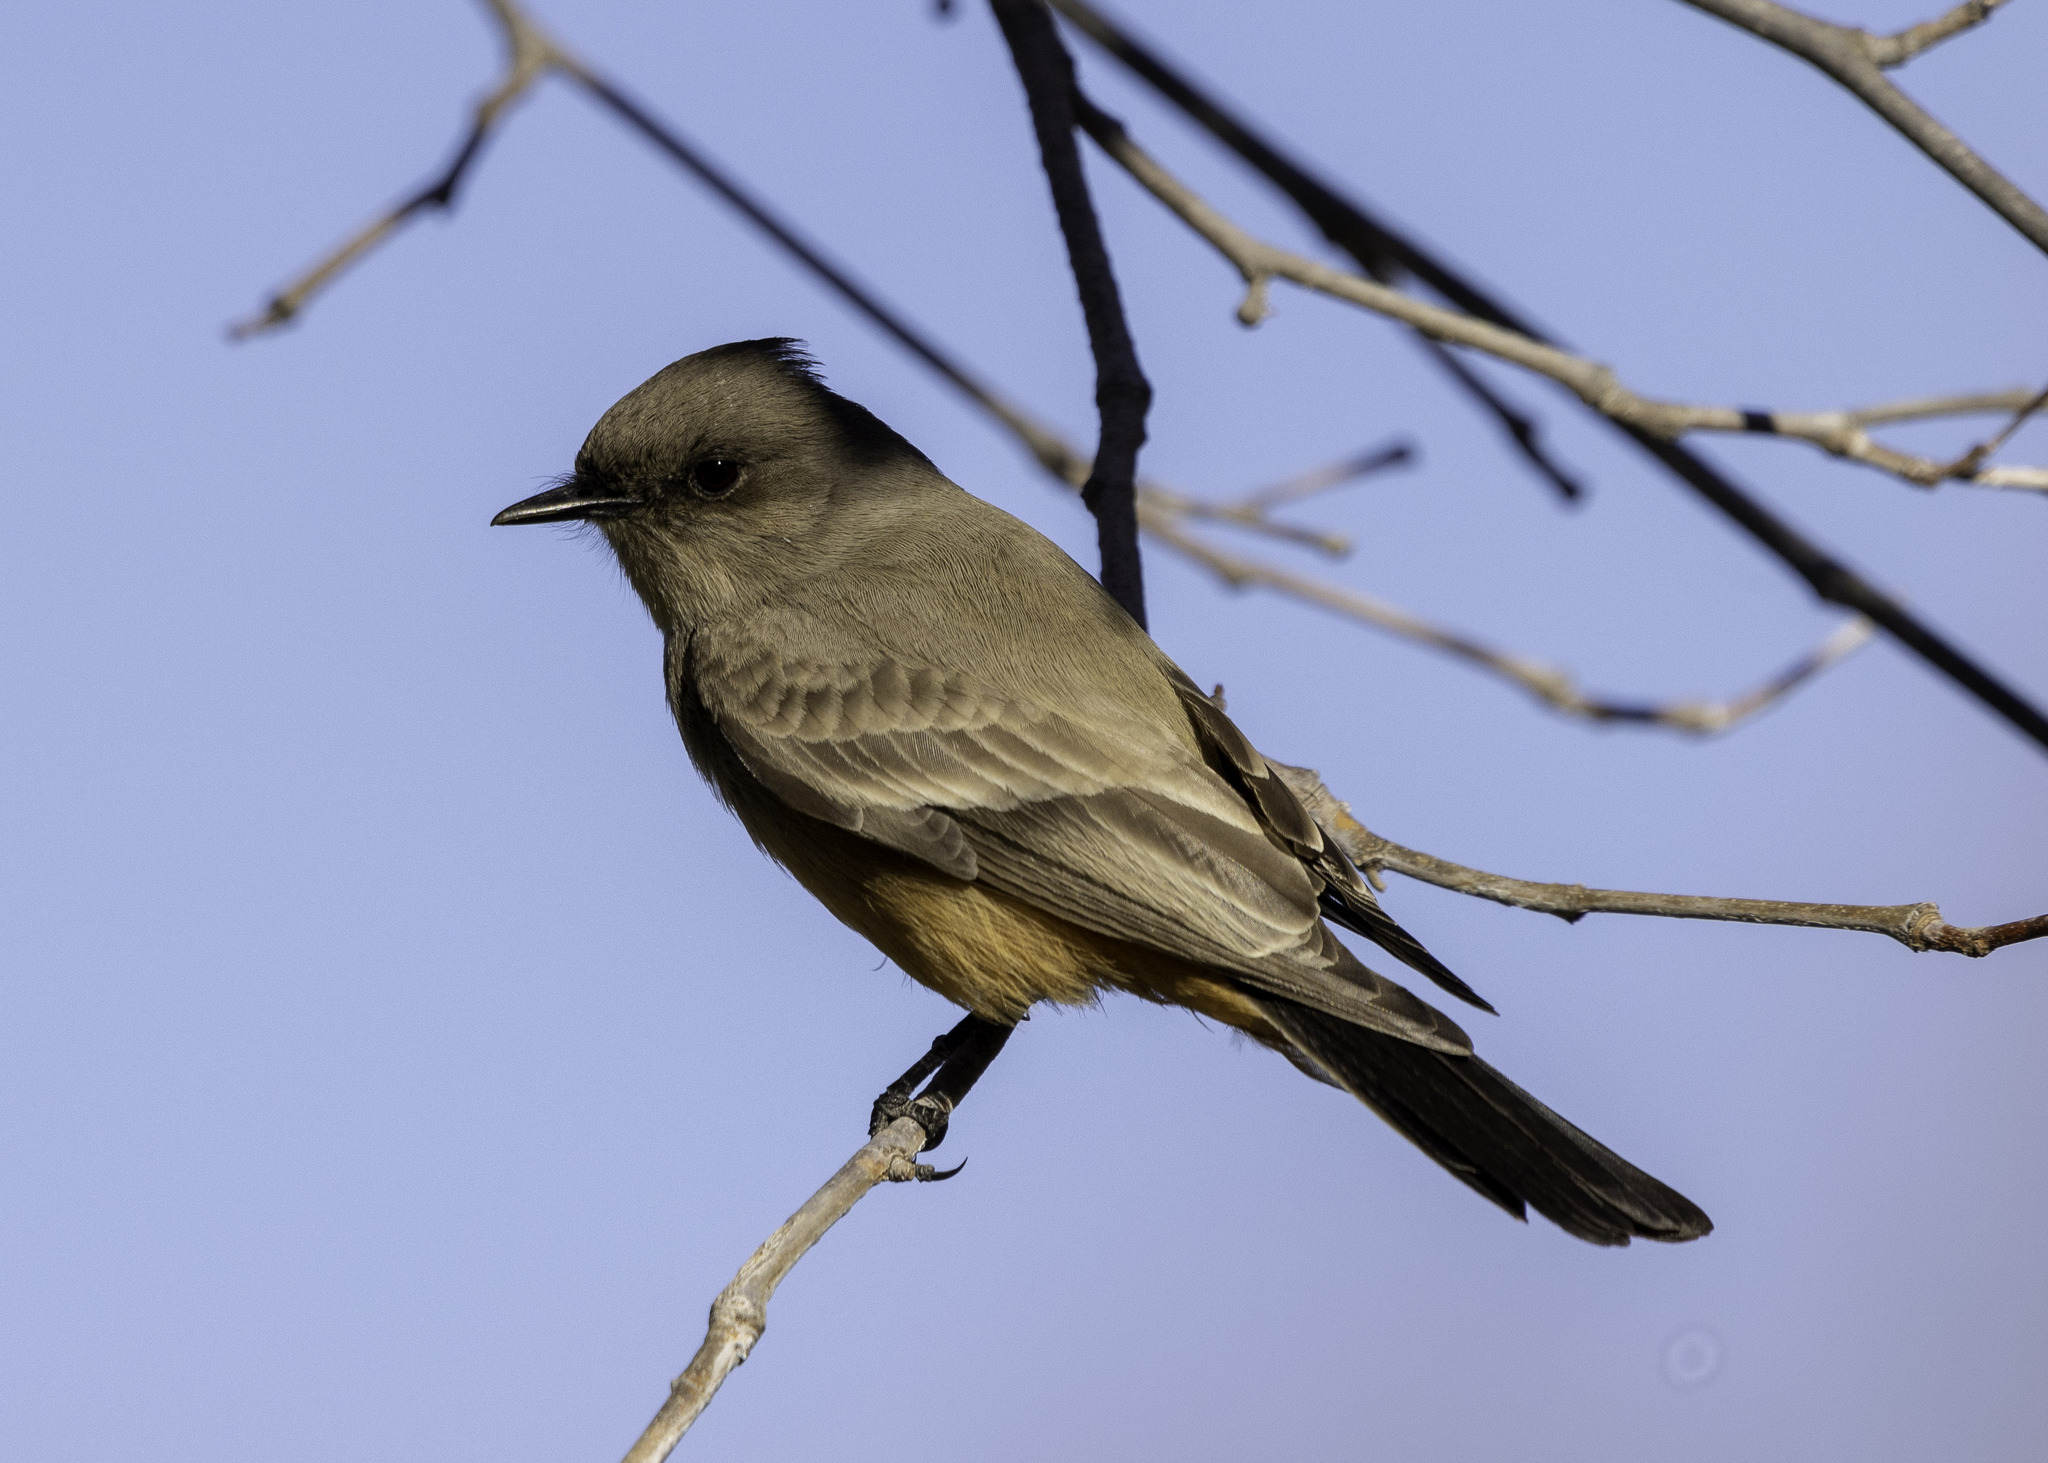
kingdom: Animalia
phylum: Chordata
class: Aves
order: Passeriformes
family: Tyrannidae
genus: Sayornis
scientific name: Sayornis saya
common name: Say's phoebe
